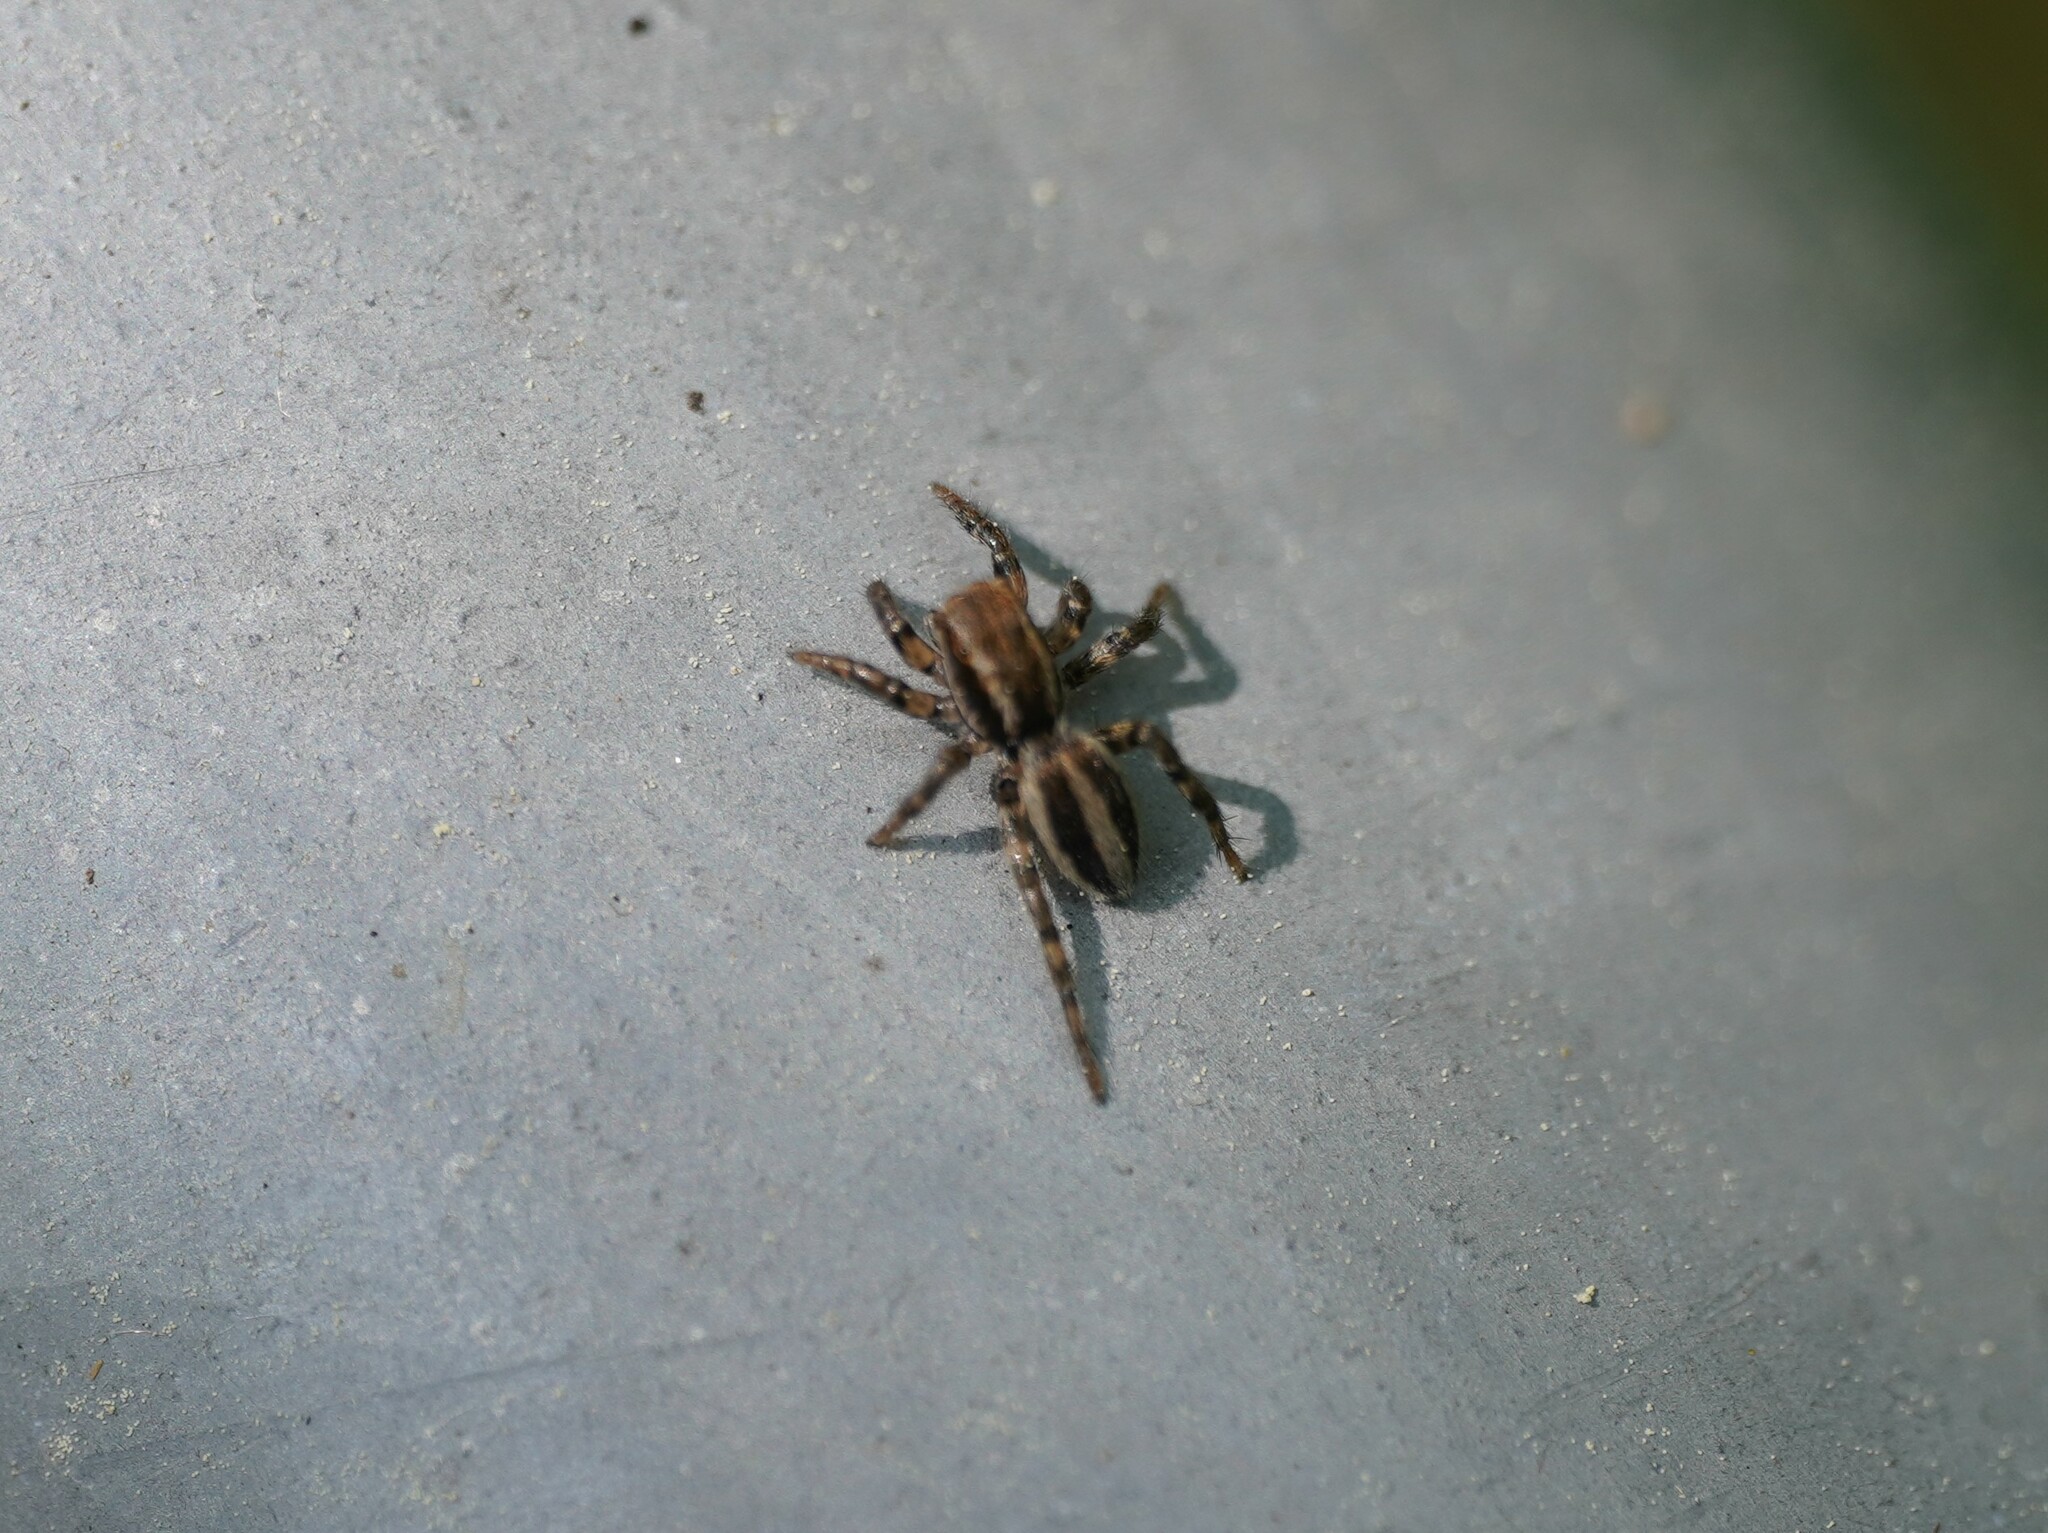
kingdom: Animalia
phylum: Arthropoda
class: Arachnida
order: Araneae
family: Salticidae
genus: Phlegra
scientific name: Phlegra fasciata
